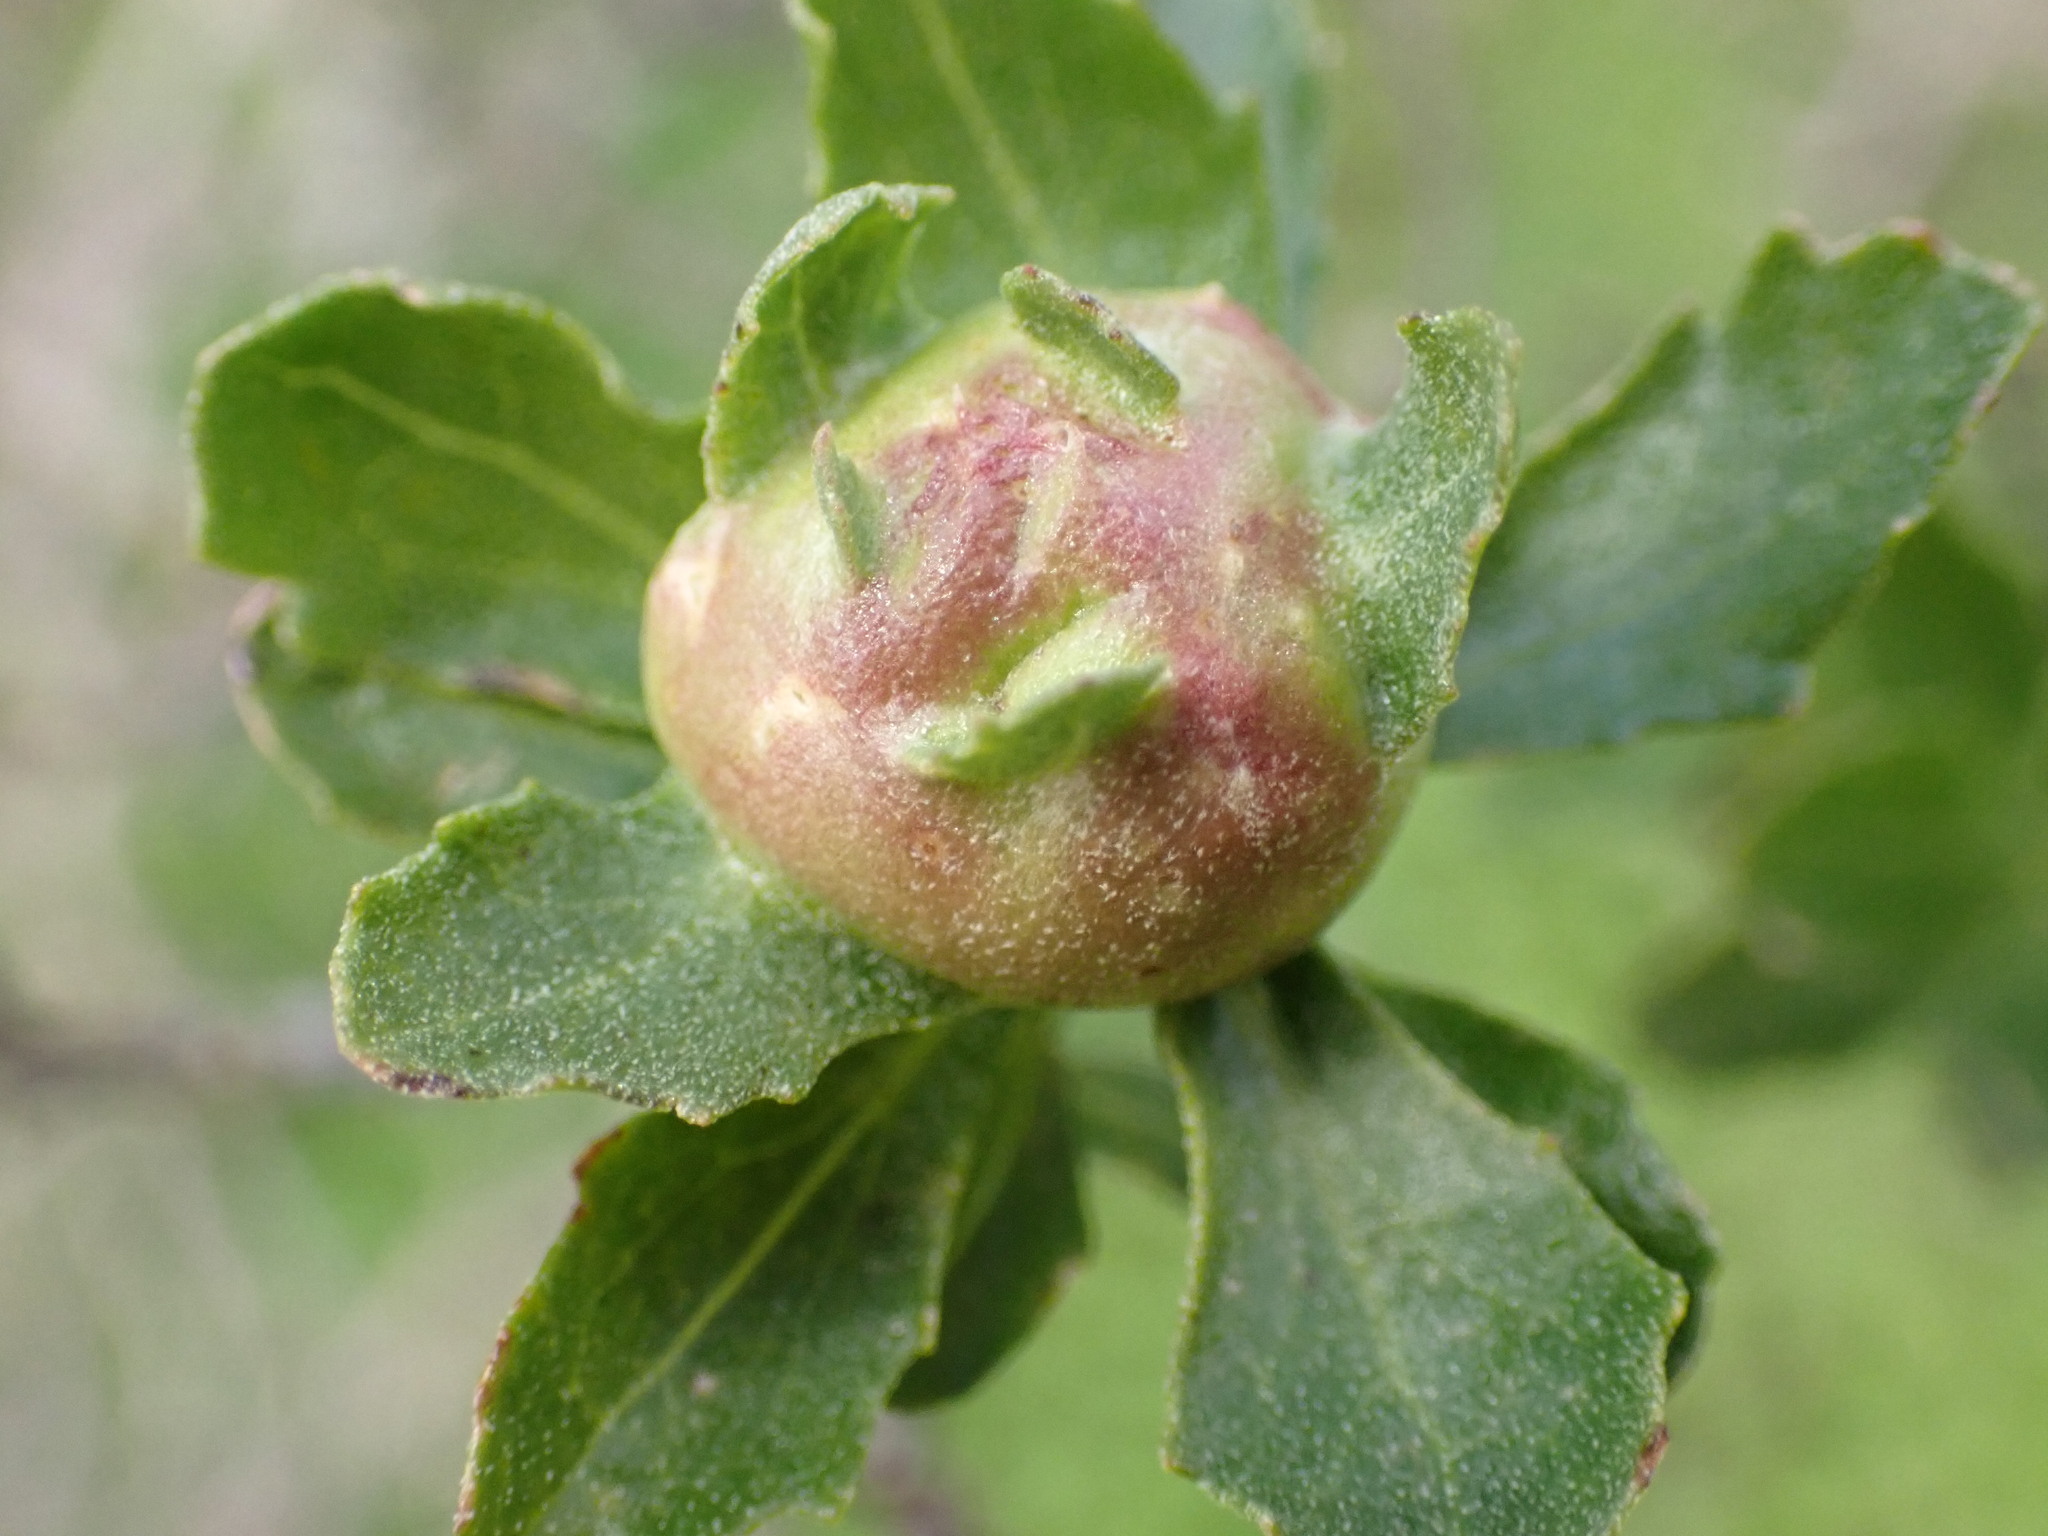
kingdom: Animalia
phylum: Arthropoda
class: Insecta
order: Diptera
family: Cecidomyiidae
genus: Rhopalomyia
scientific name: Rhopalomyia californica
